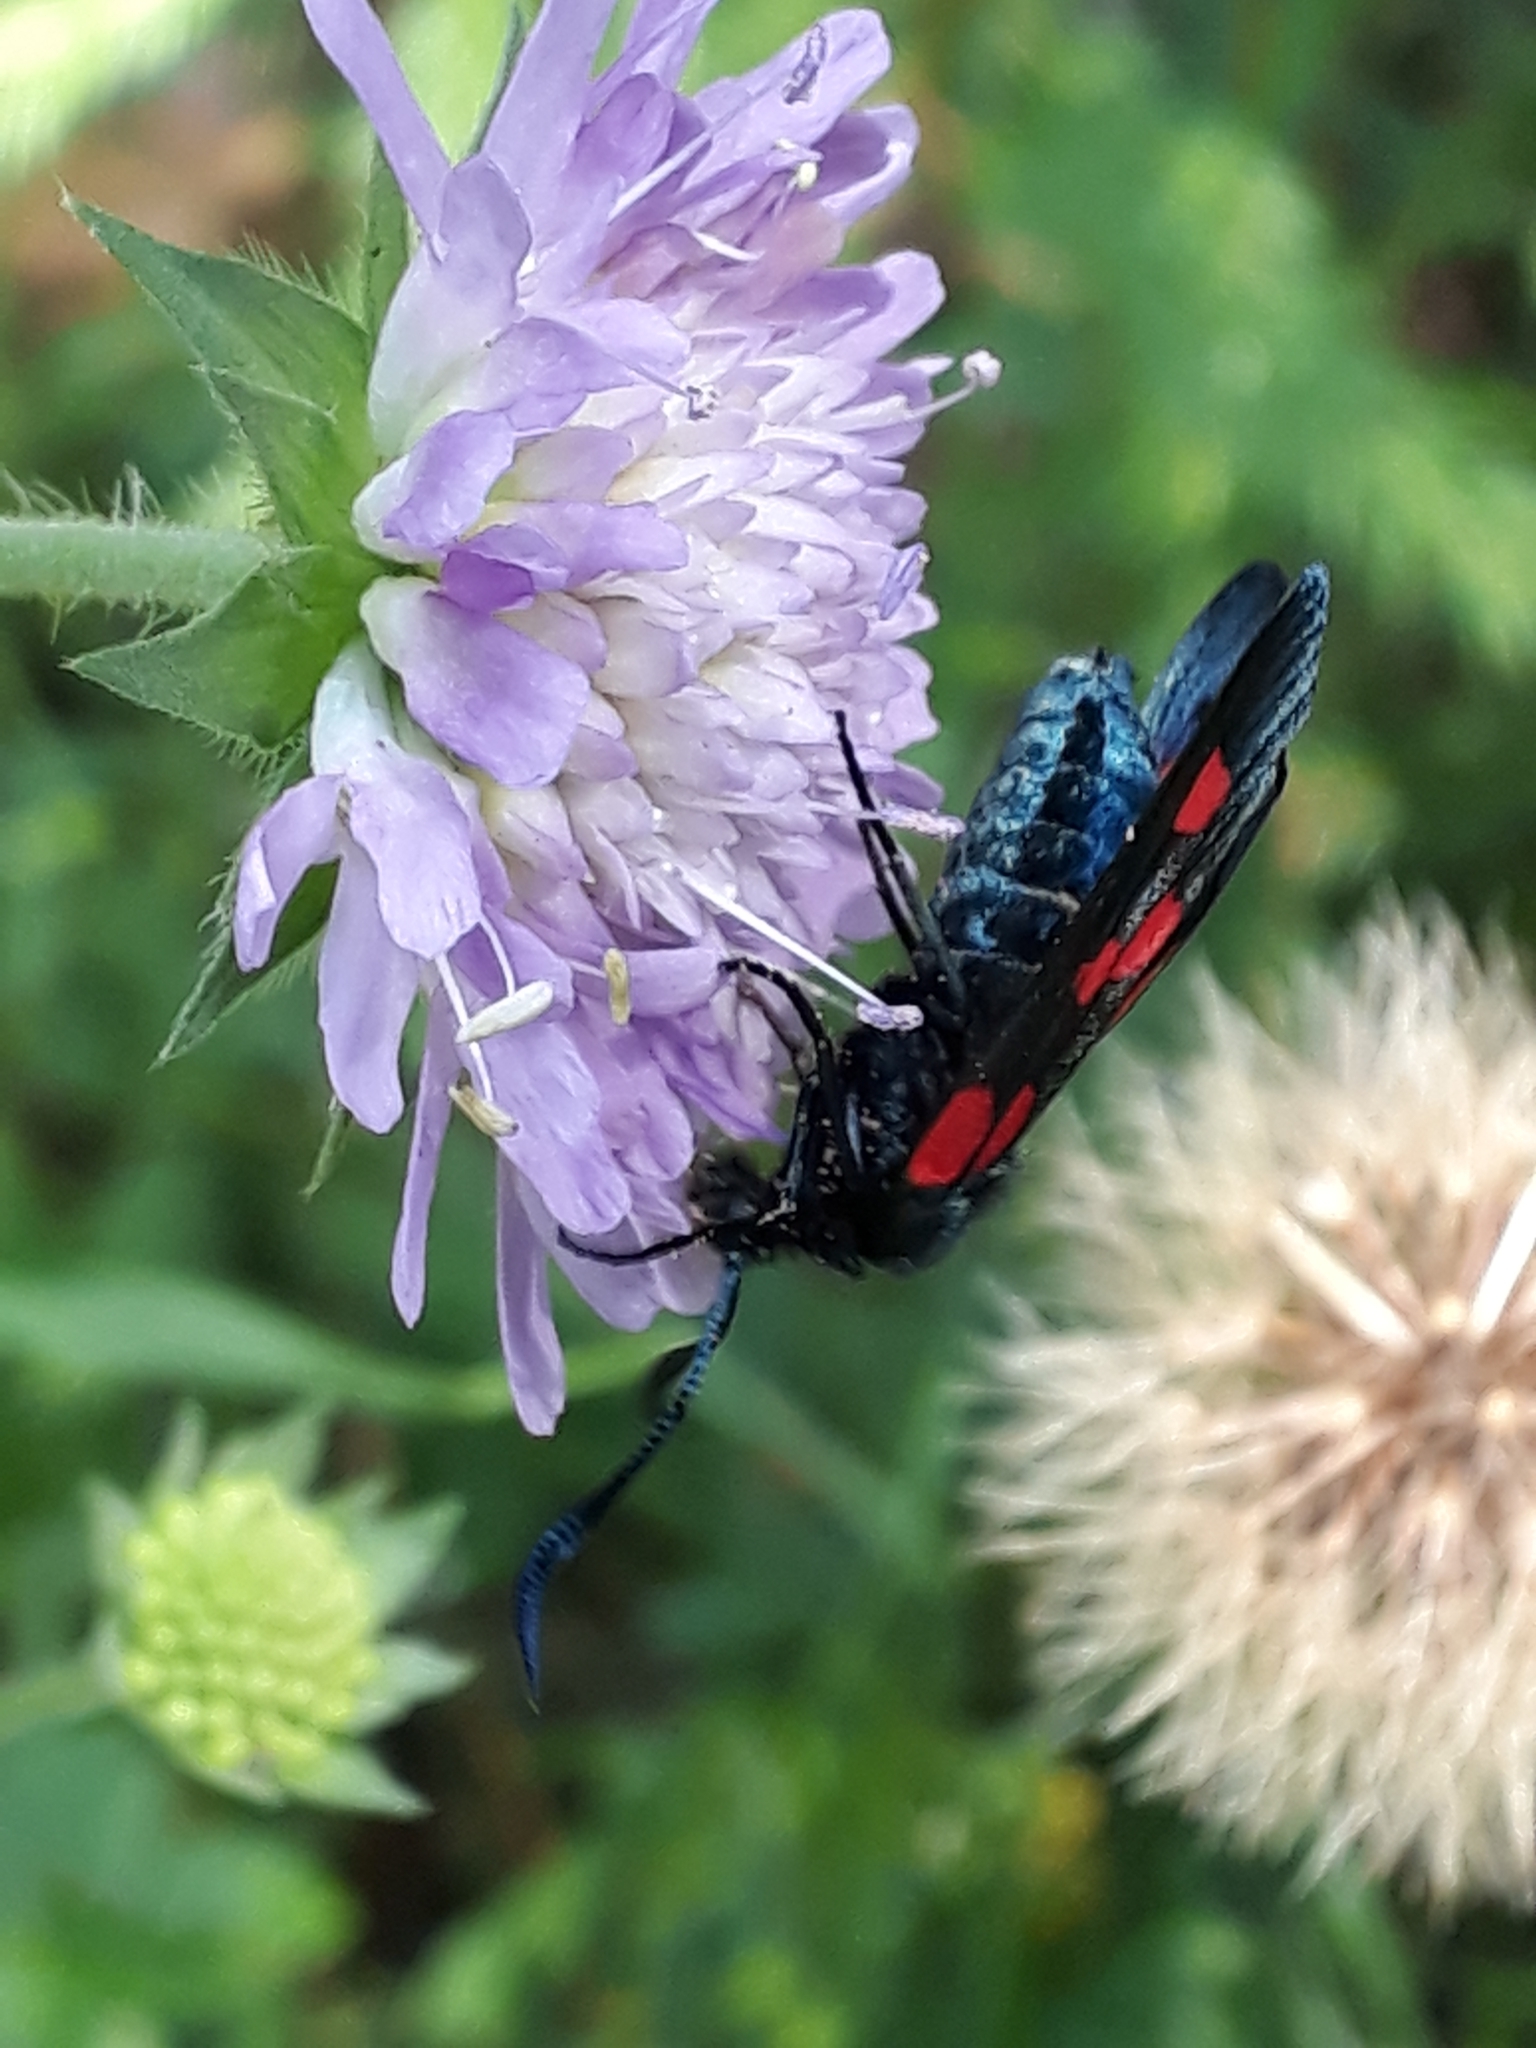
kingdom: Animalia
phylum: Arthropoda
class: Insecta
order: Lepidoptera
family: Zygaenidae
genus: Zygaena
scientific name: Zygaena lonicerae
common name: Narrow-bordered five-spot burnet
